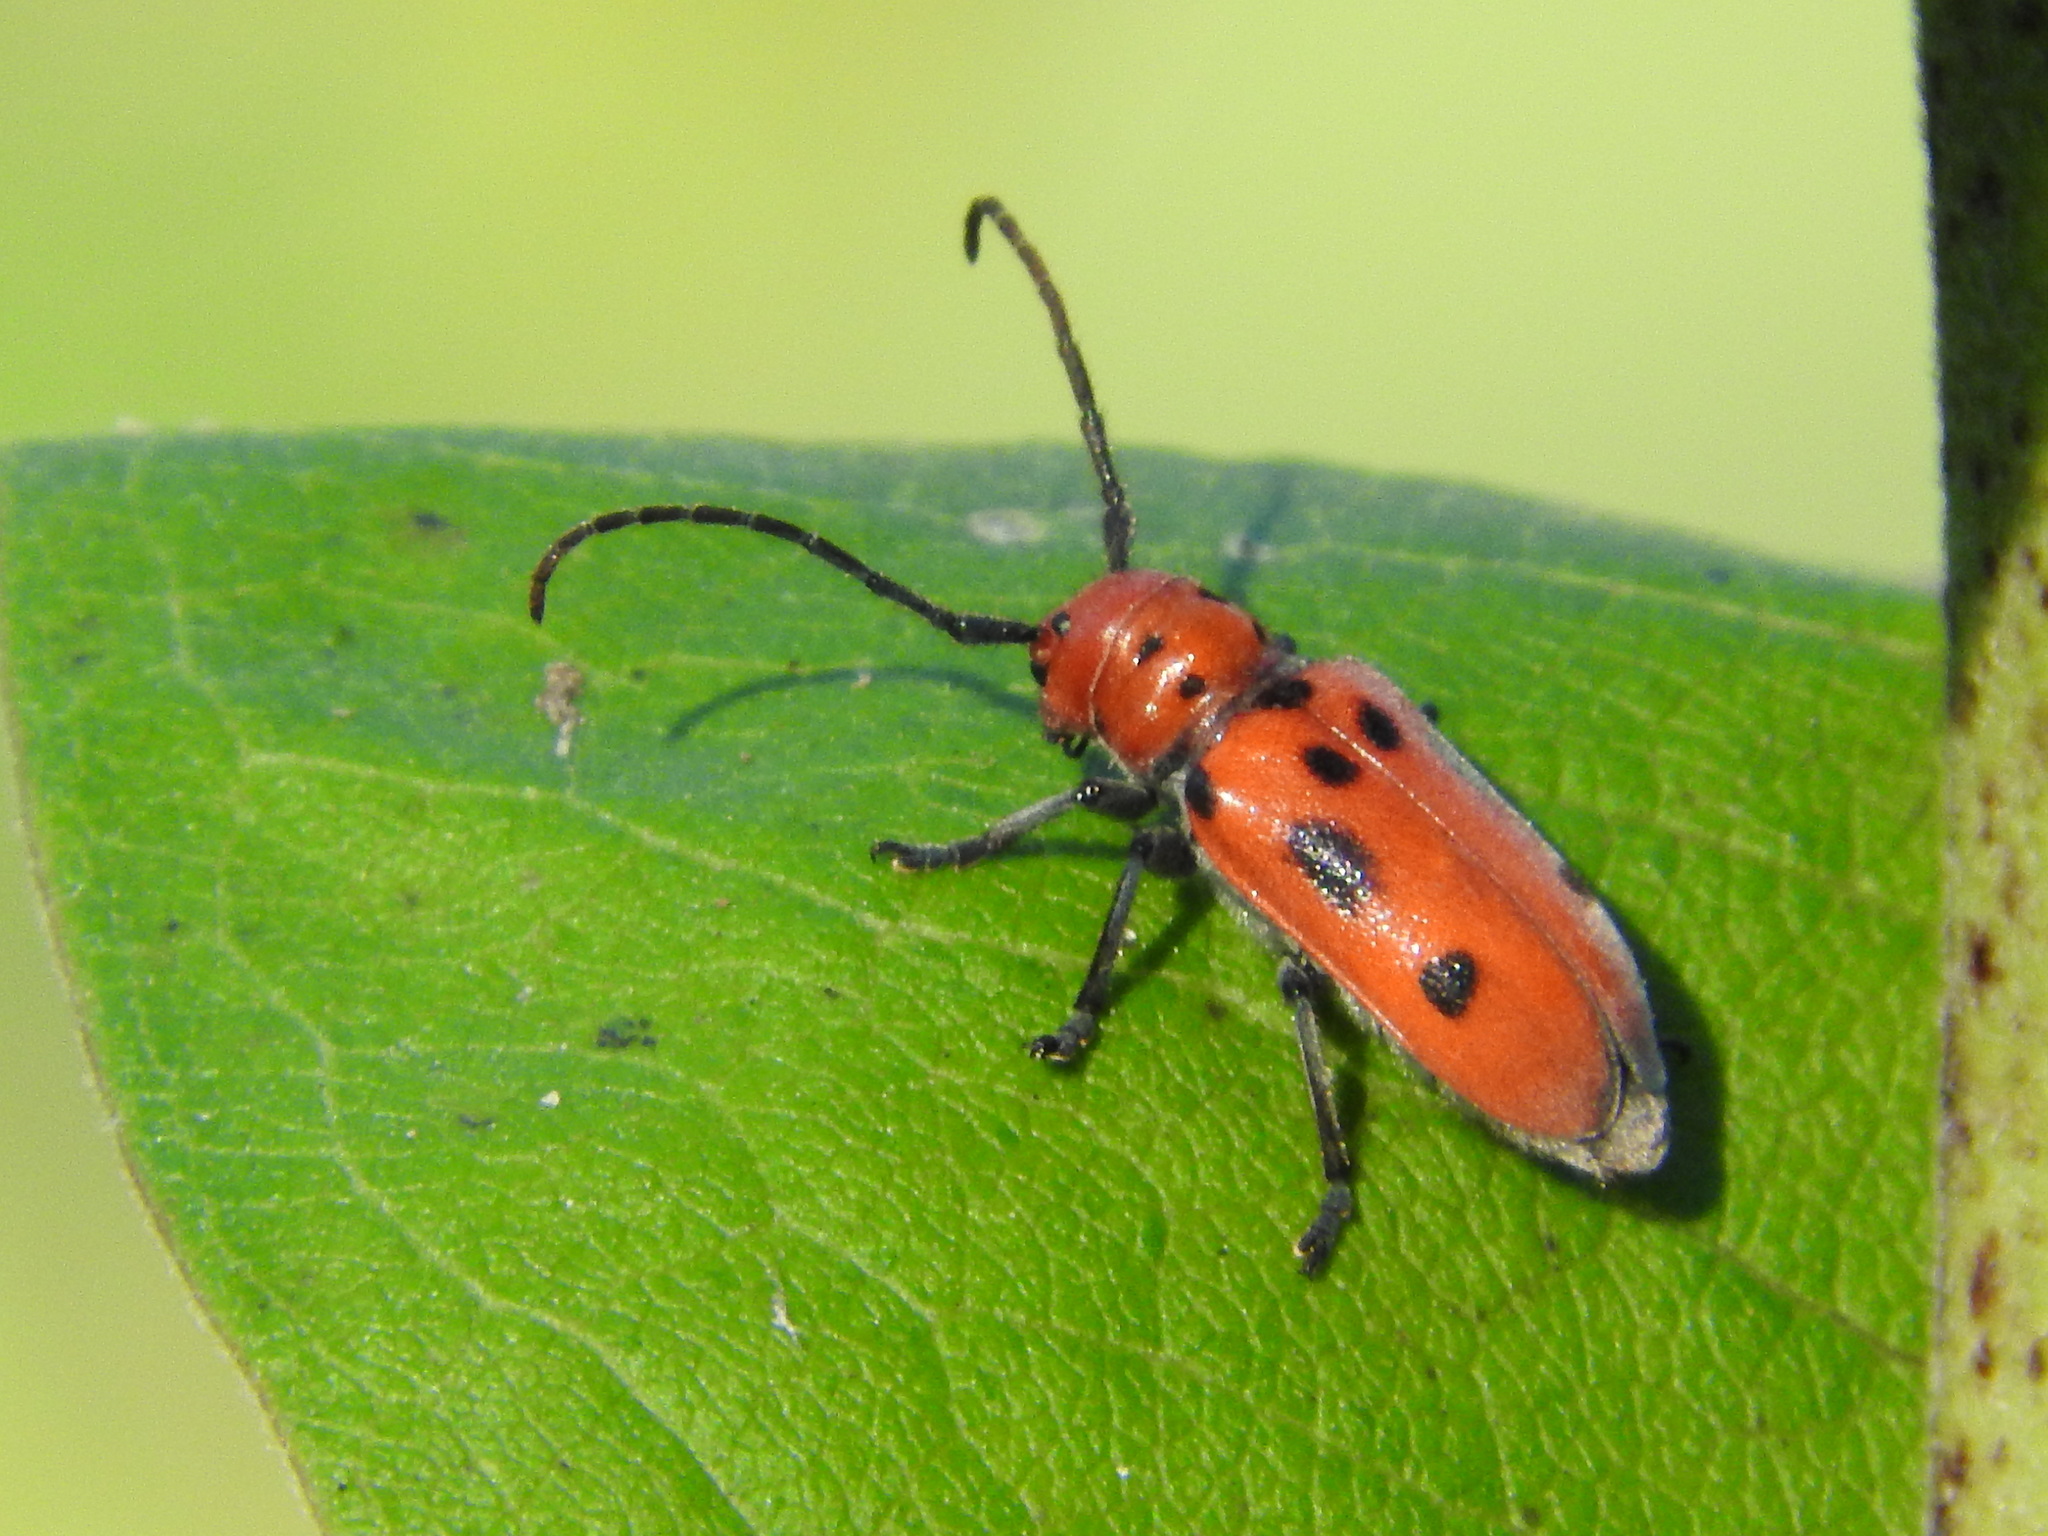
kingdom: Animalia
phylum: Arthropoda
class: Insecta
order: Coleoptera
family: Cerambycidae
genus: Tetraopes
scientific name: Tetraopes tetrophthalmus
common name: Red milkweed beetle
